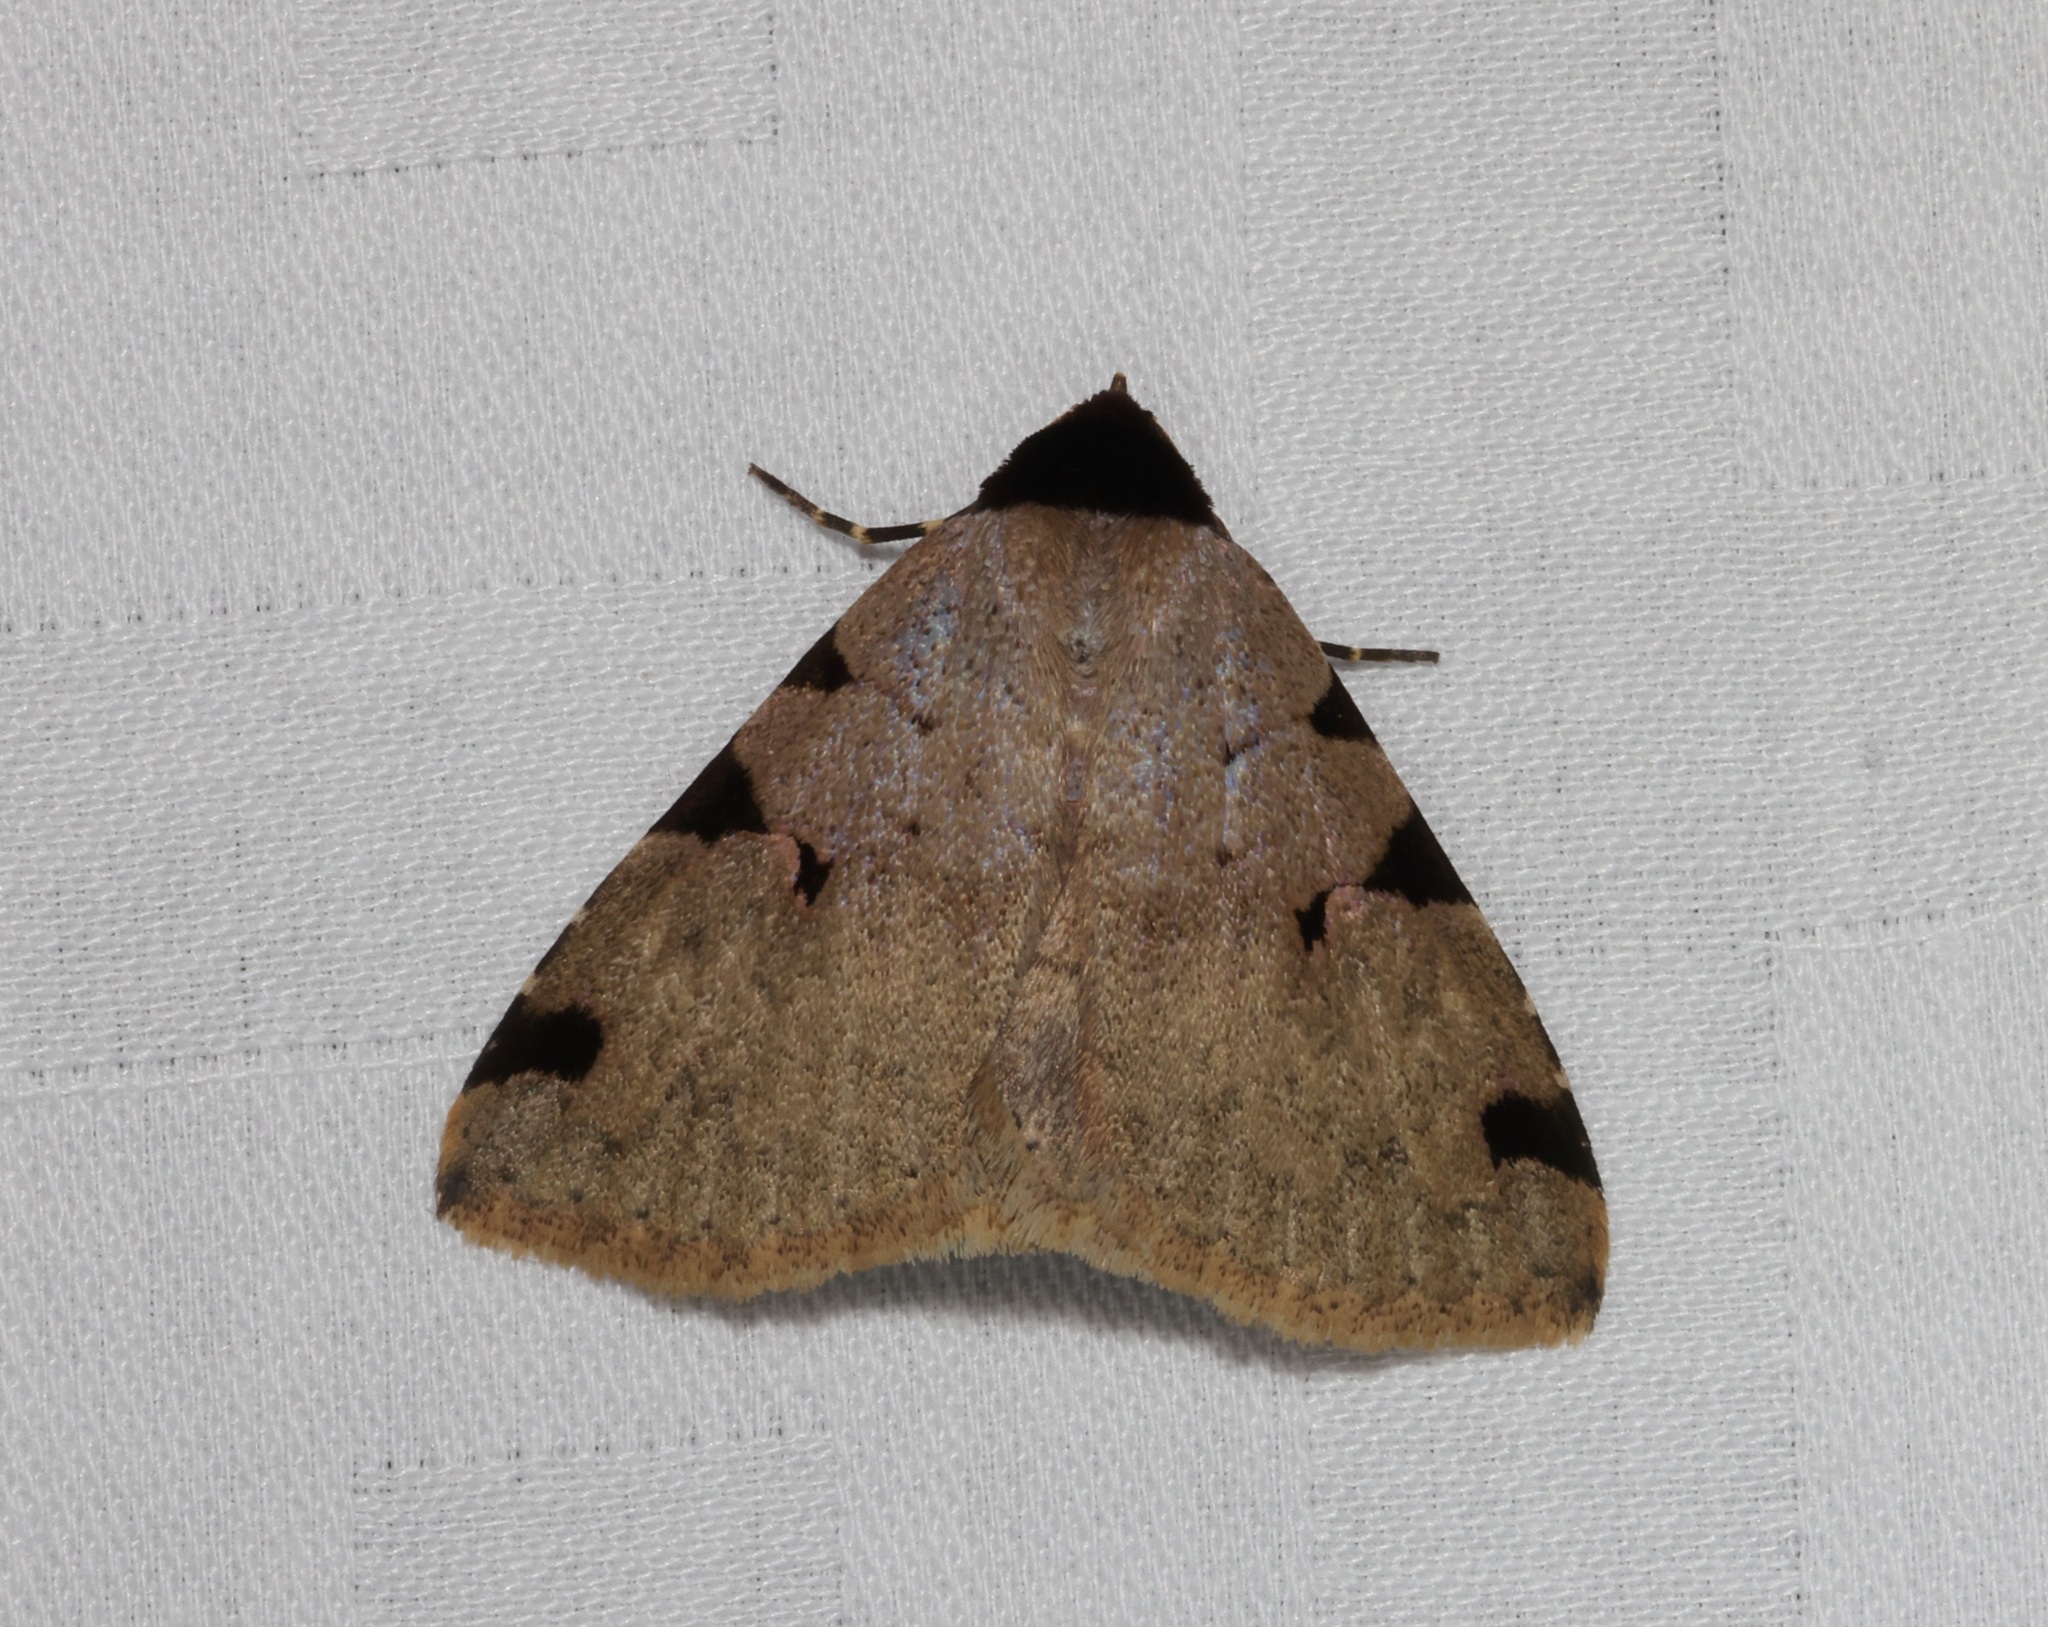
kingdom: Animalia
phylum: Arthropoda
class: Insecta
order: Lepidoptera
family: Erebidae
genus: Rema
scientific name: Rema costimacula
